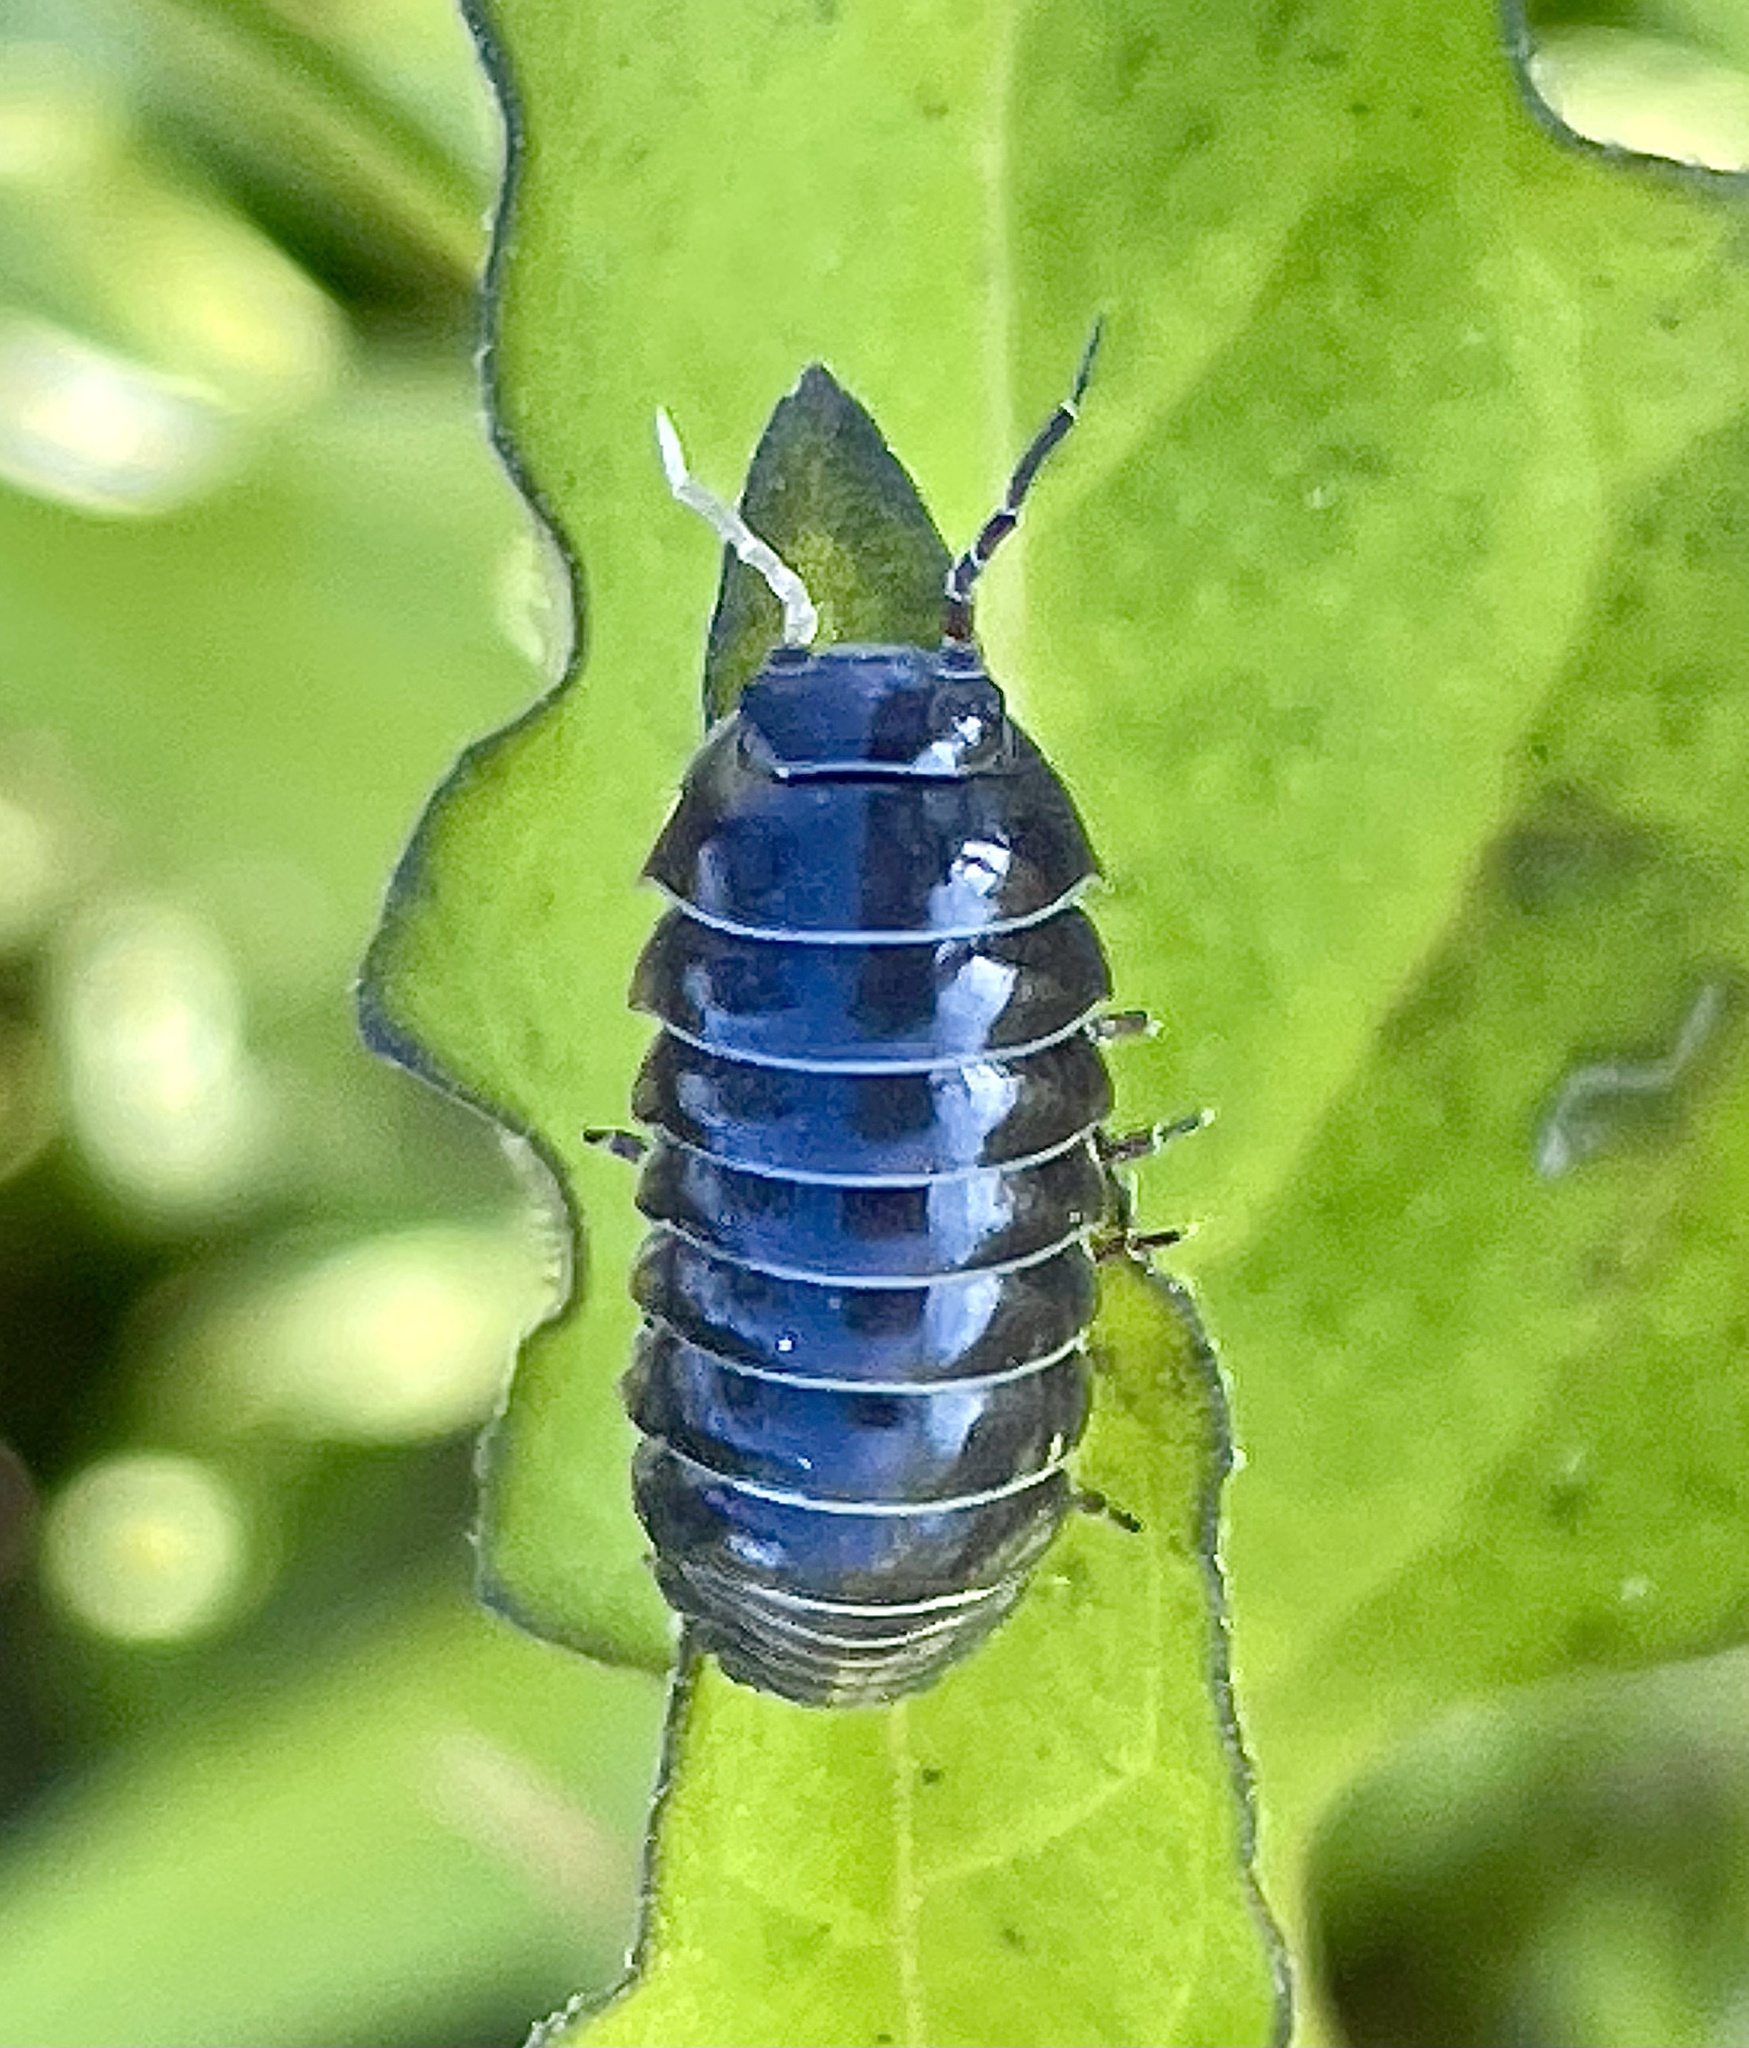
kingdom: Animalia
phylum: Arthropoda
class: Malacostraca
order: Isopoda
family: Armadillidiidae
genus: Armadillidium
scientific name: Armadillidium vulgare
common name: Common pill woodlouse
